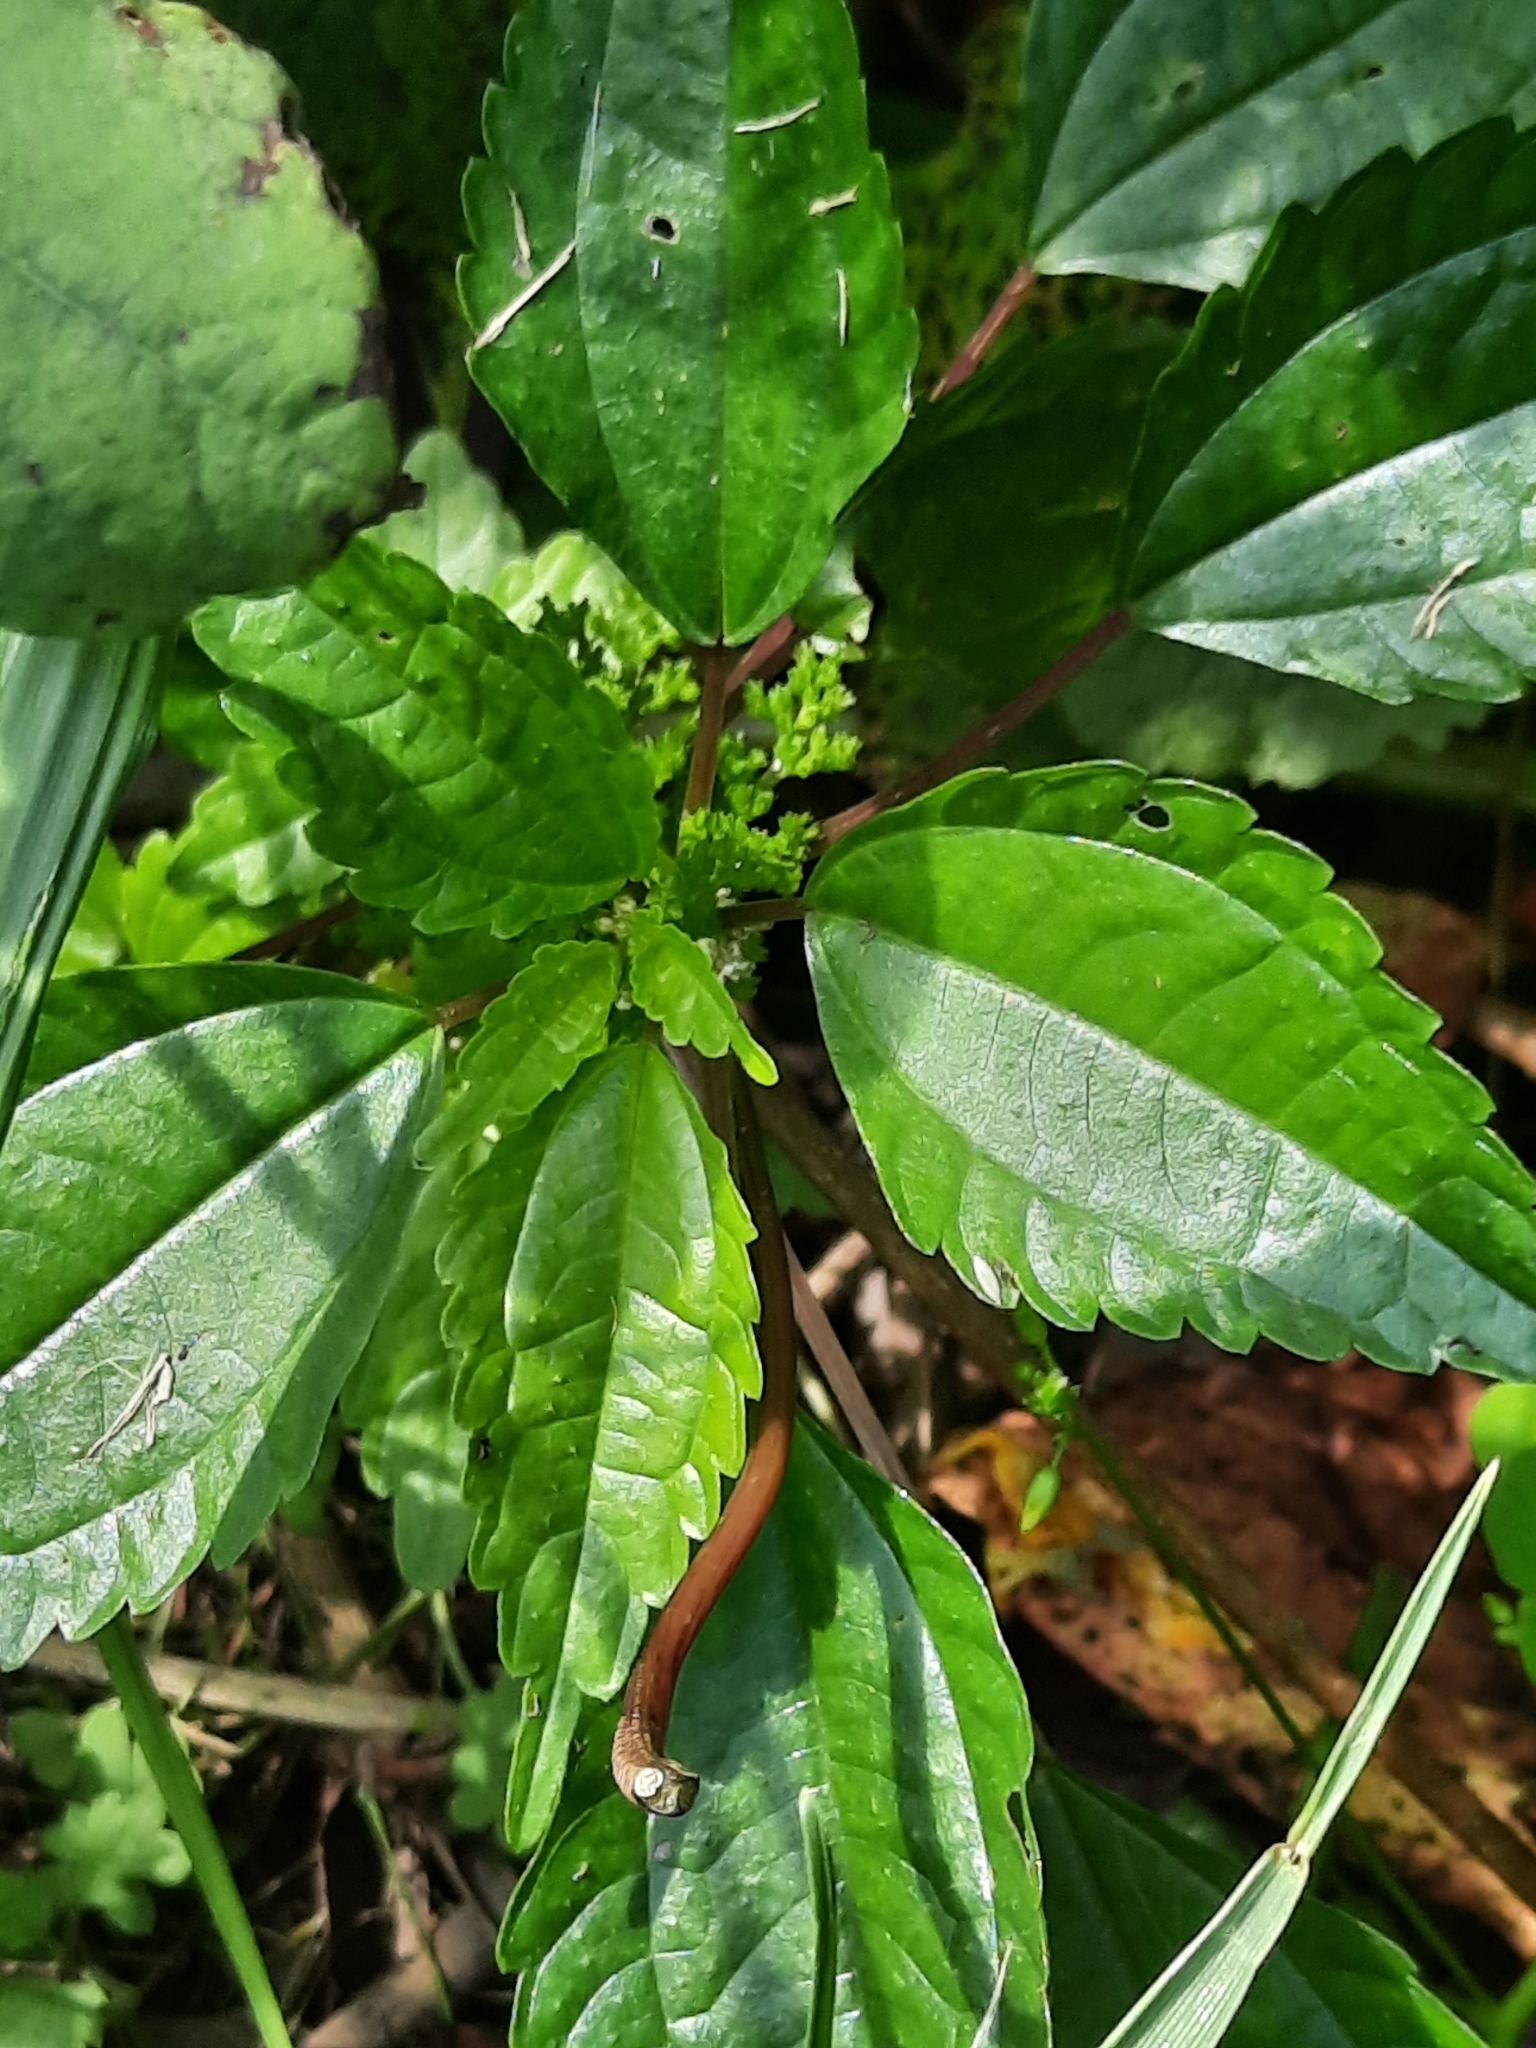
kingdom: Plantae
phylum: Tracheophyta
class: Magnoliopsida
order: Rosales
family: Urticaceae
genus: Pilea
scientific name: Pilea pumila
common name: Clearweed
